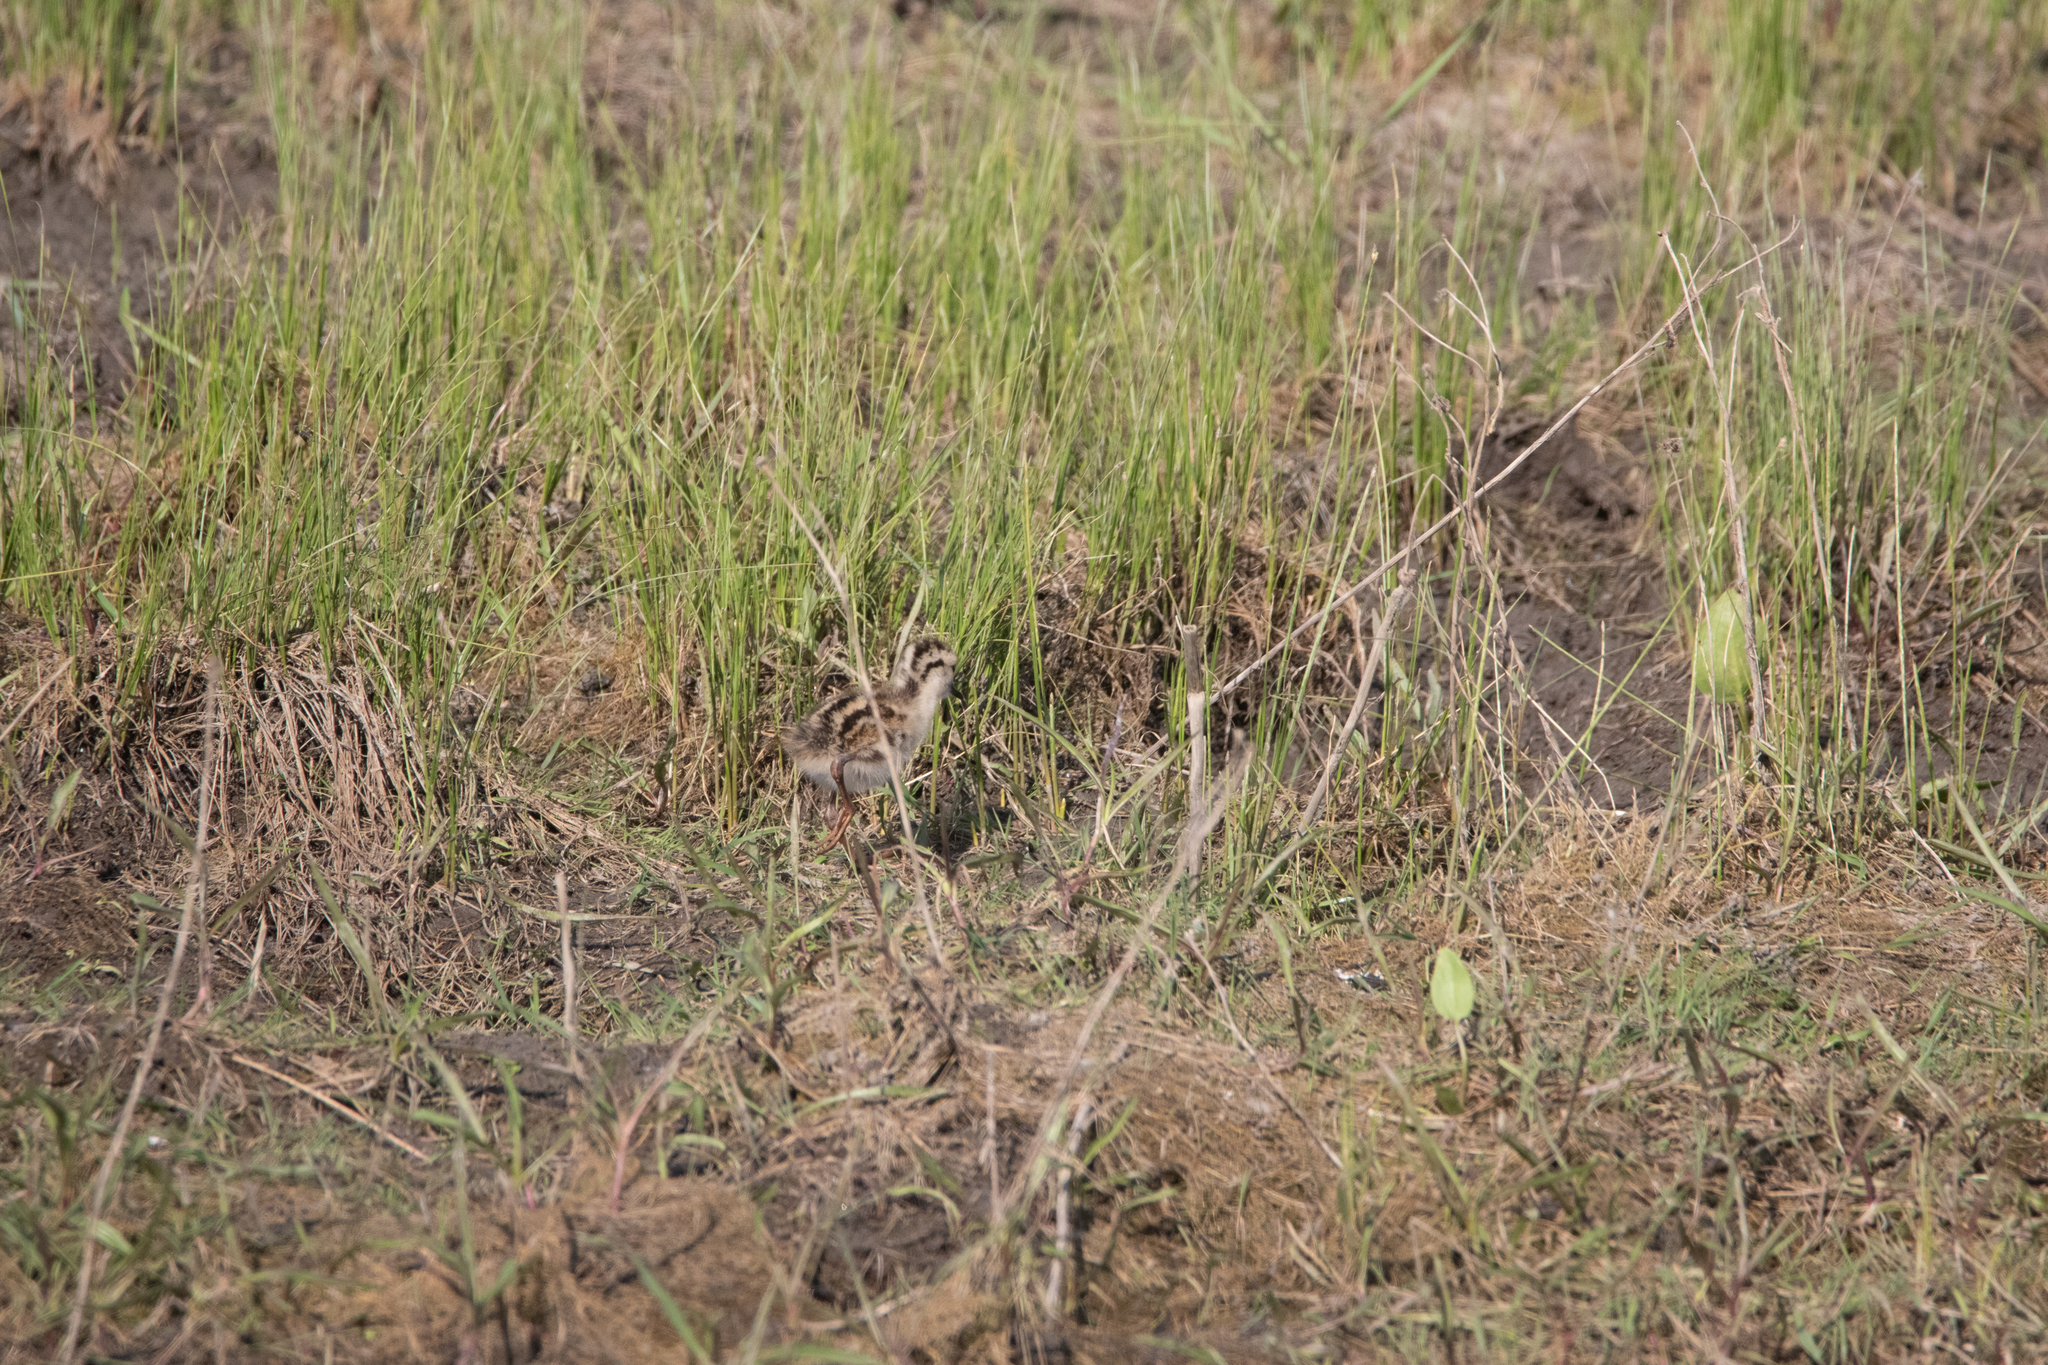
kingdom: Animalia
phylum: Chordata
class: Aves
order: Charadriiformes
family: Scolopacidae
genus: Tringa
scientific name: Tringa totanus
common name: Common redshank
